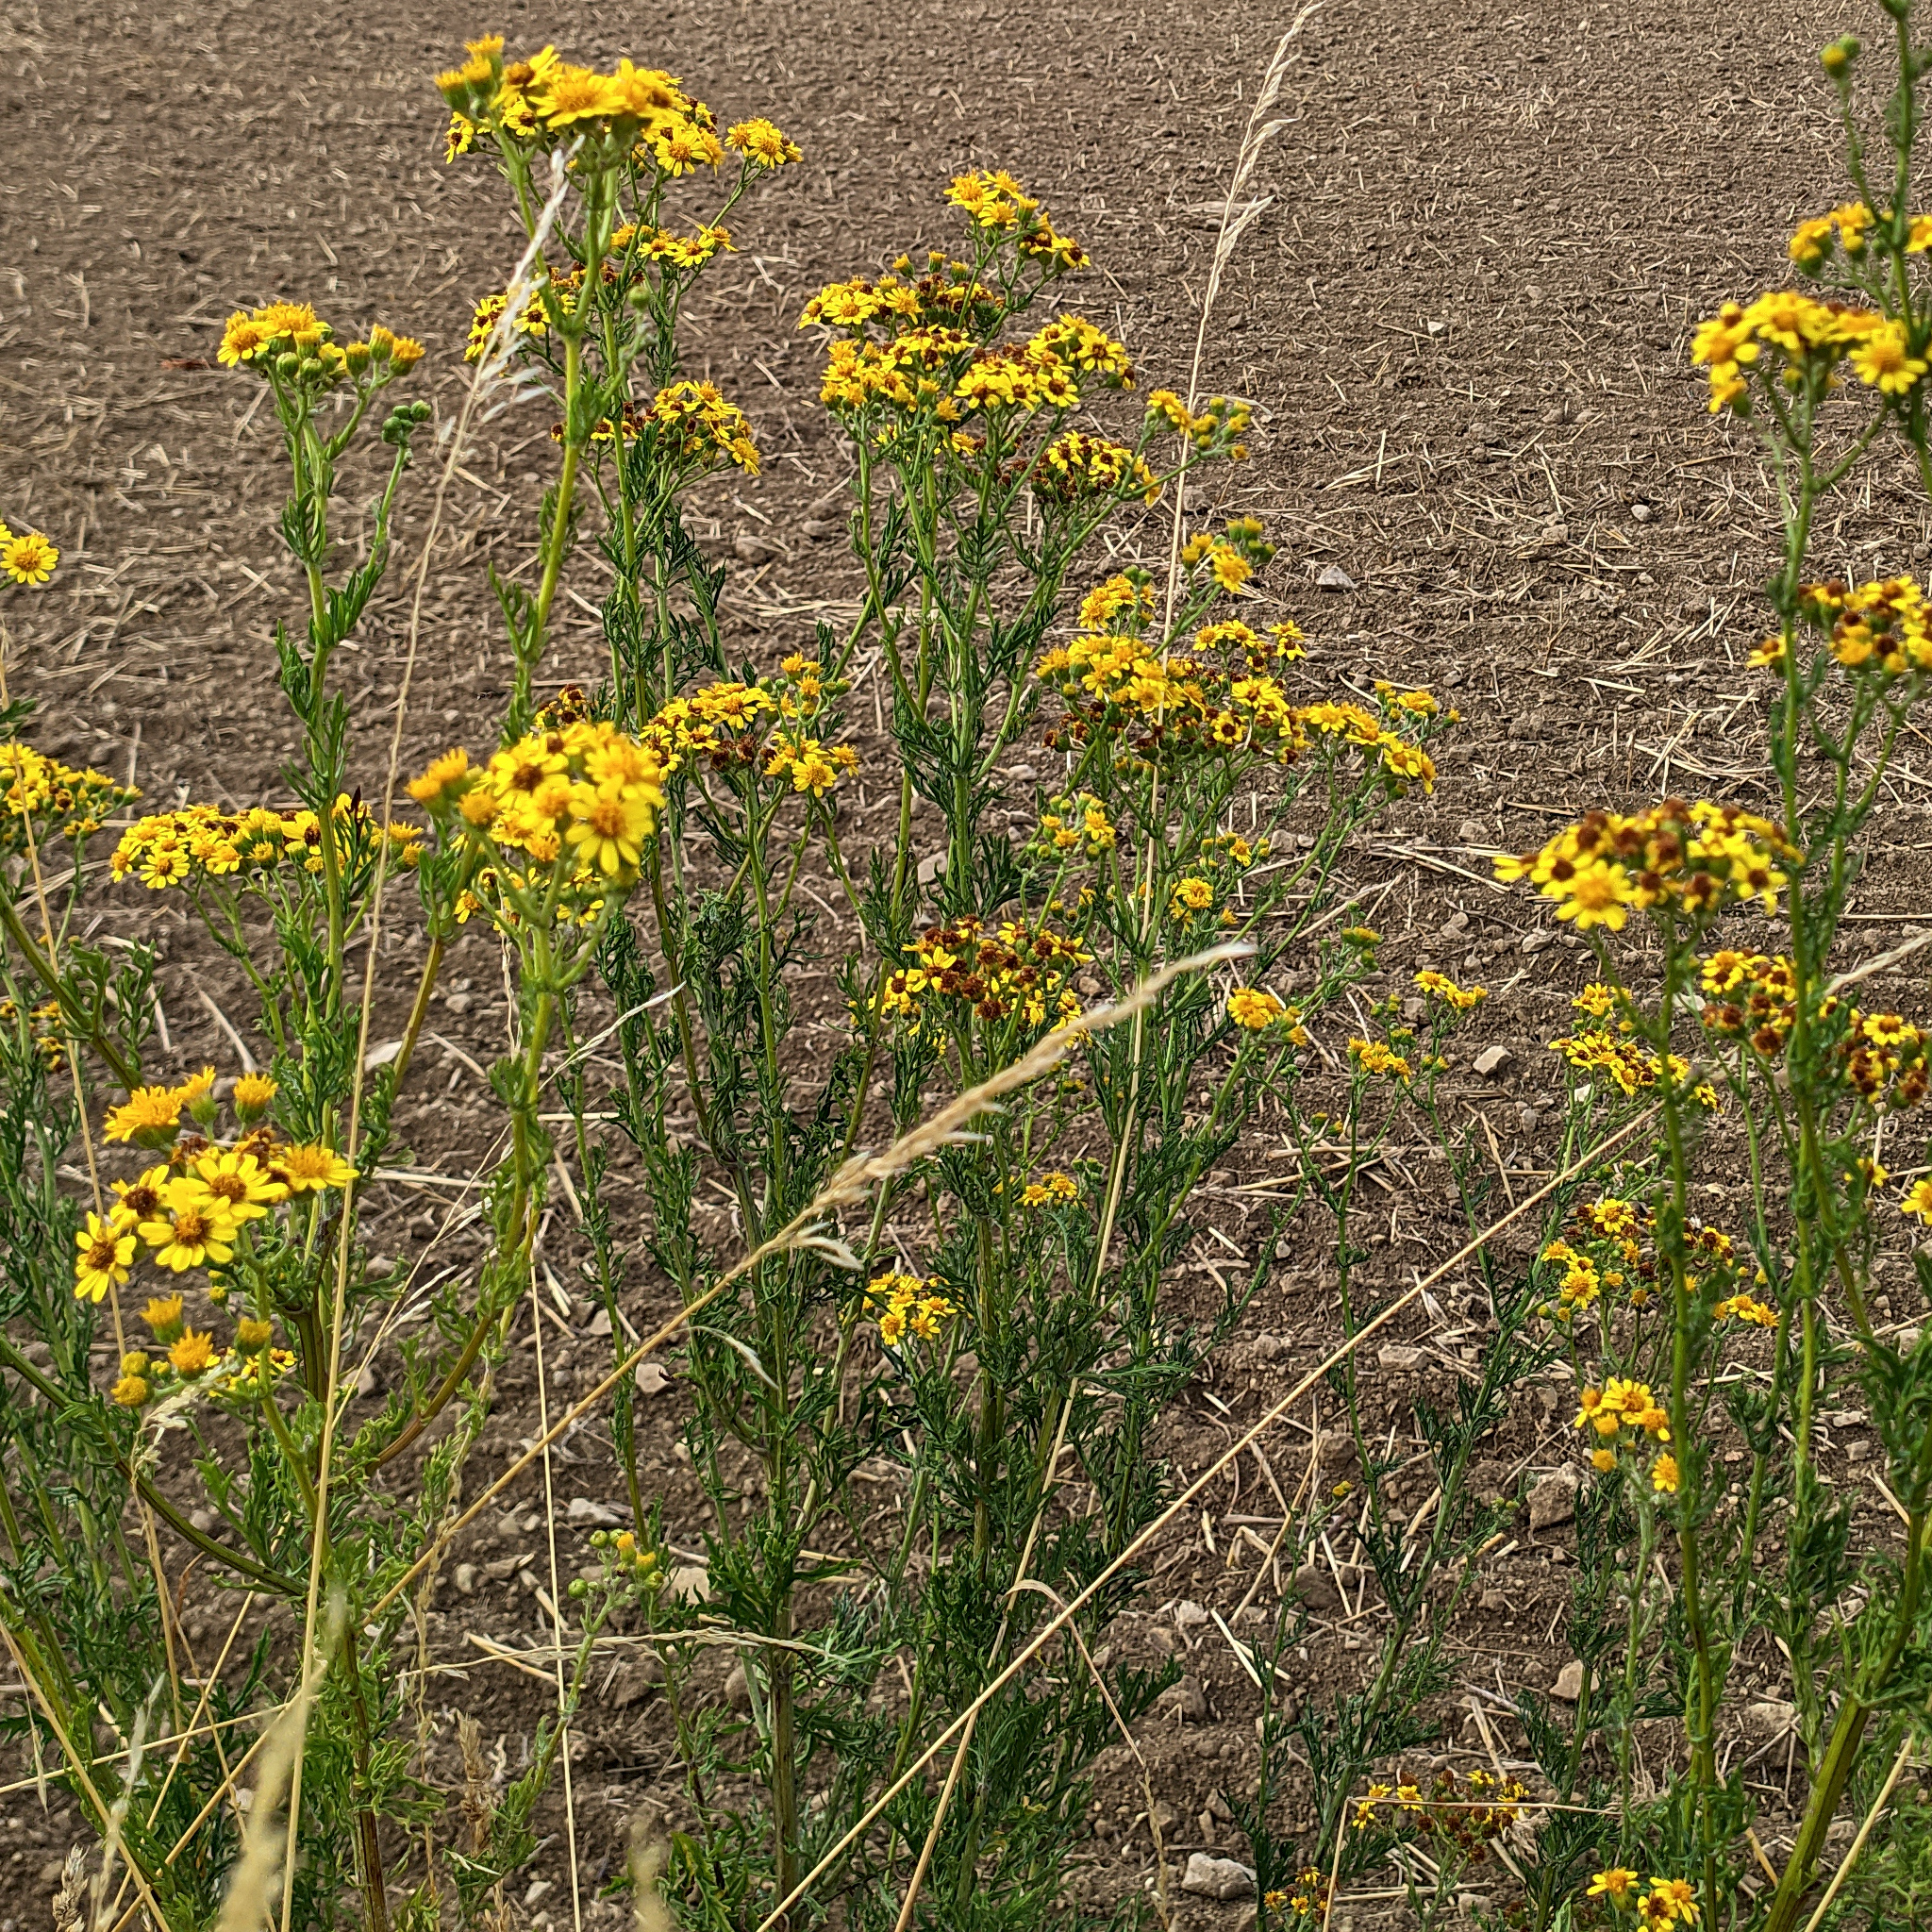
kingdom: Plantae
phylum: Tracheophyta
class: Magnoliopsida
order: Asterales
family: Asteraceae
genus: Jacobaea
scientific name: Jacobaea vulgaris
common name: Stinking willie
